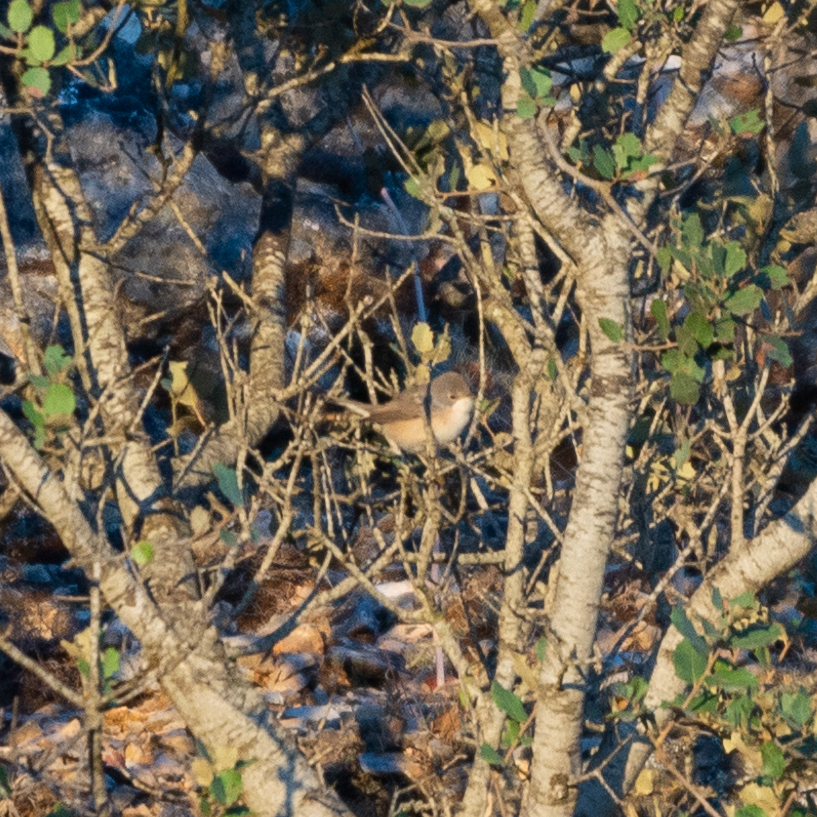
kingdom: Animalia
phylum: Chordata
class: Aves
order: Passeriformes
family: Sylviidae
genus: Curruca
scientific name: Curruca iberiae
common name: Western subalpine warbler
